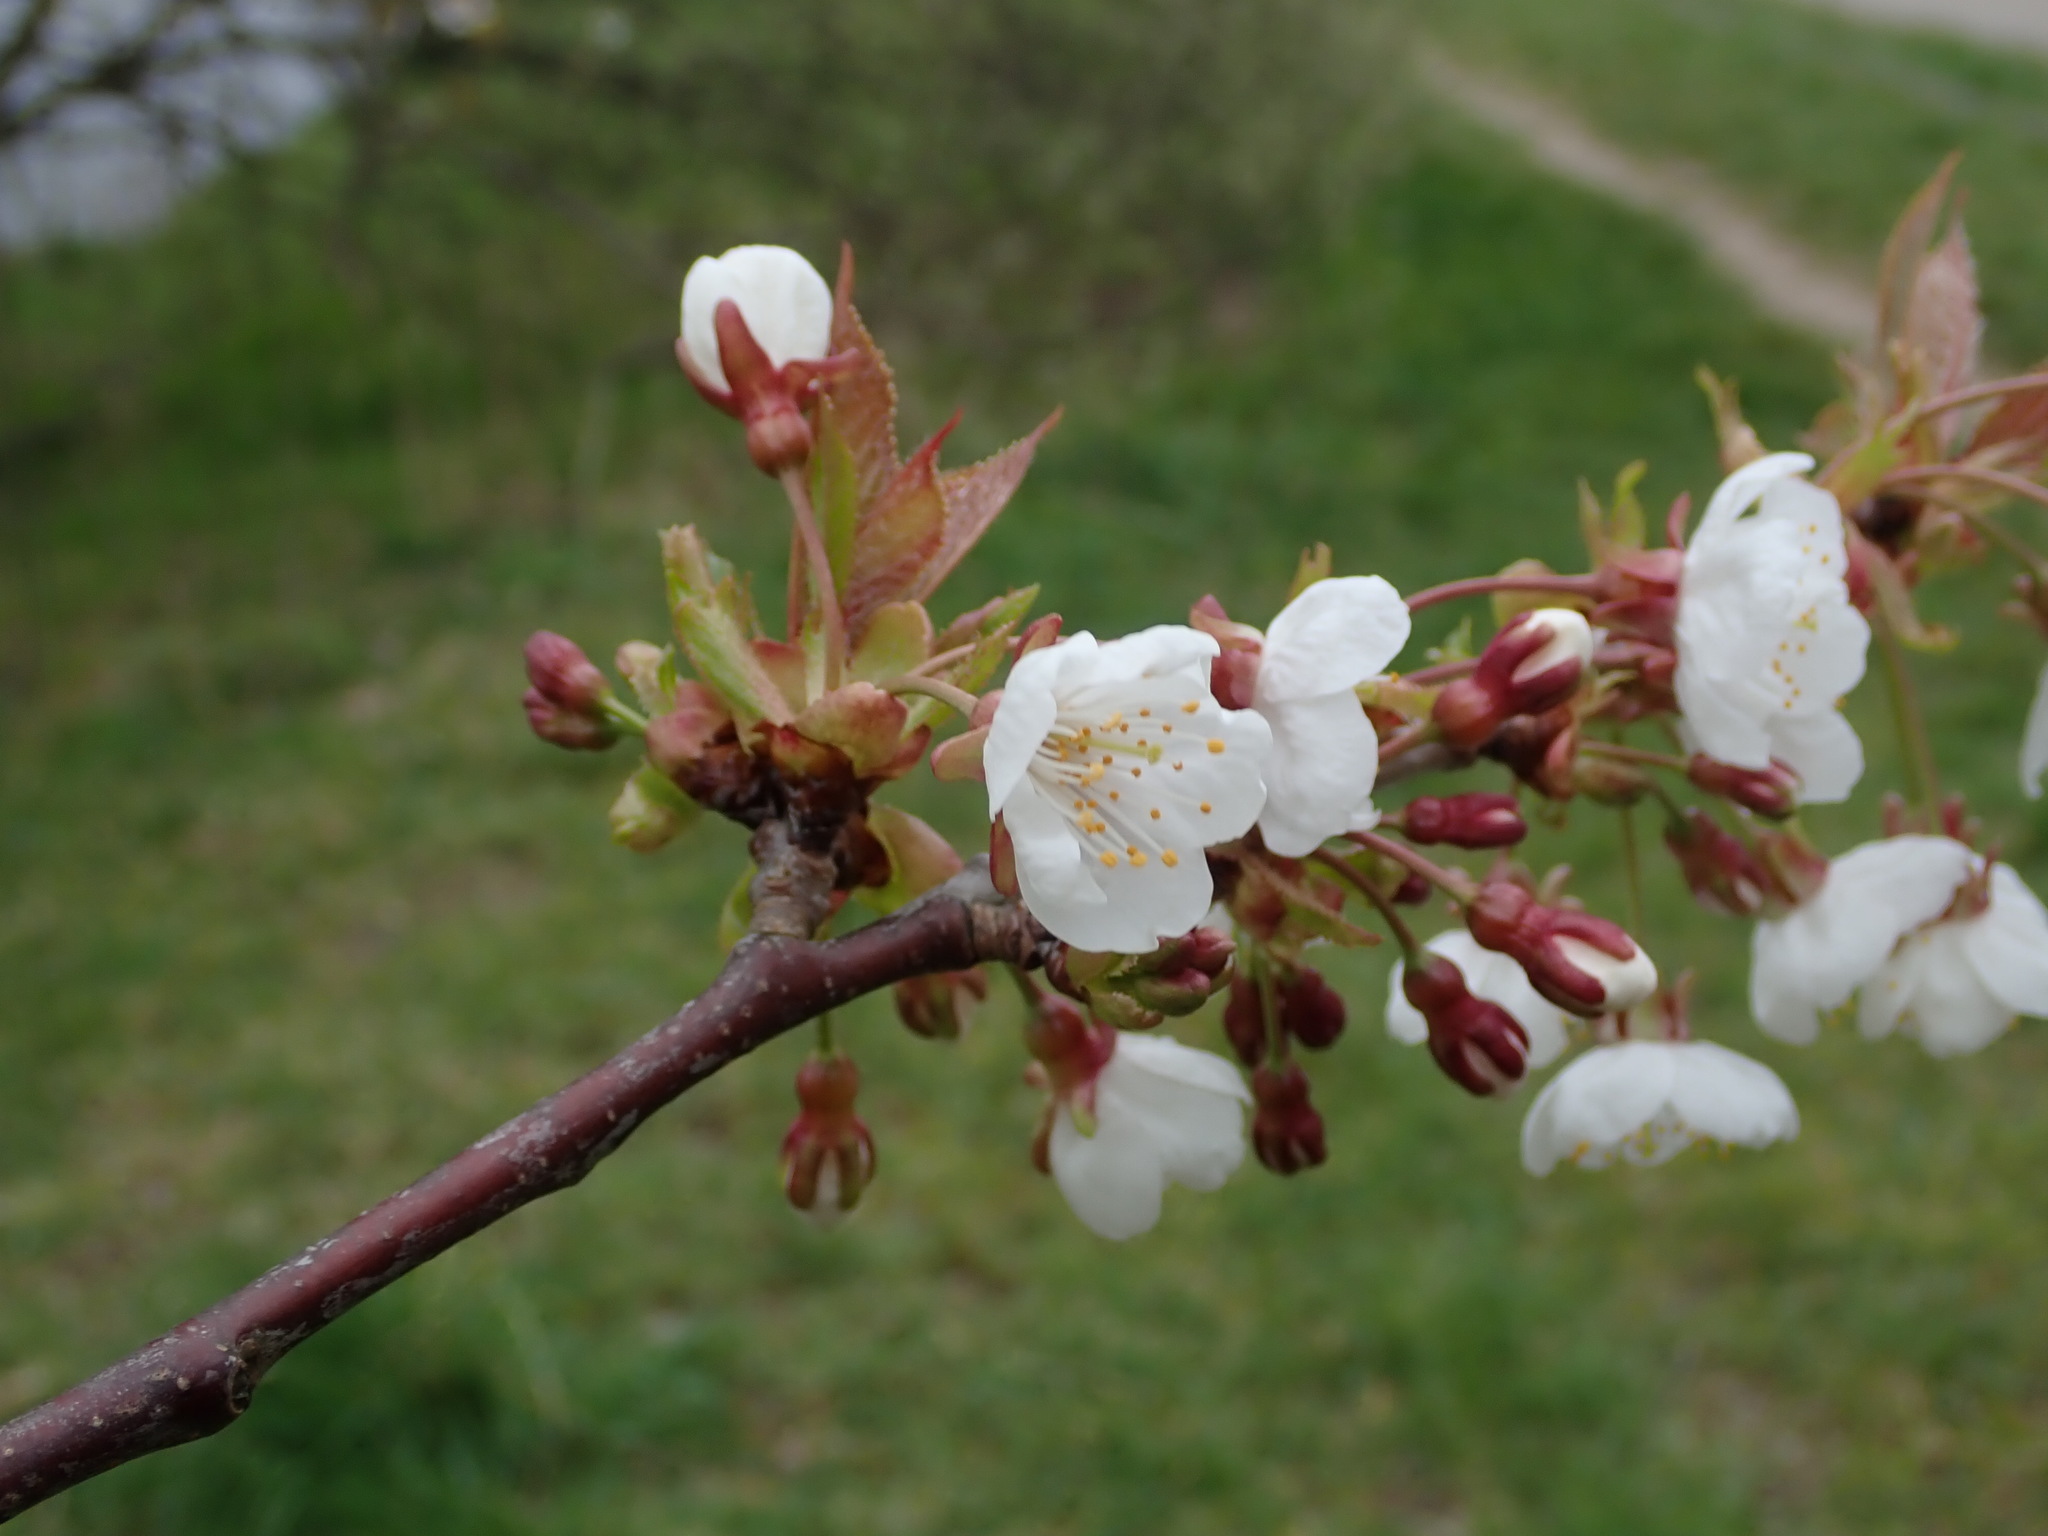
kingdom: Plantae
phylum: Tracheophyta
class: Magnoliopsida
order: Rosales
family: Rosaceae
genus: Prunus
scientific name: Prunus avium
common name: Sweet cherry
